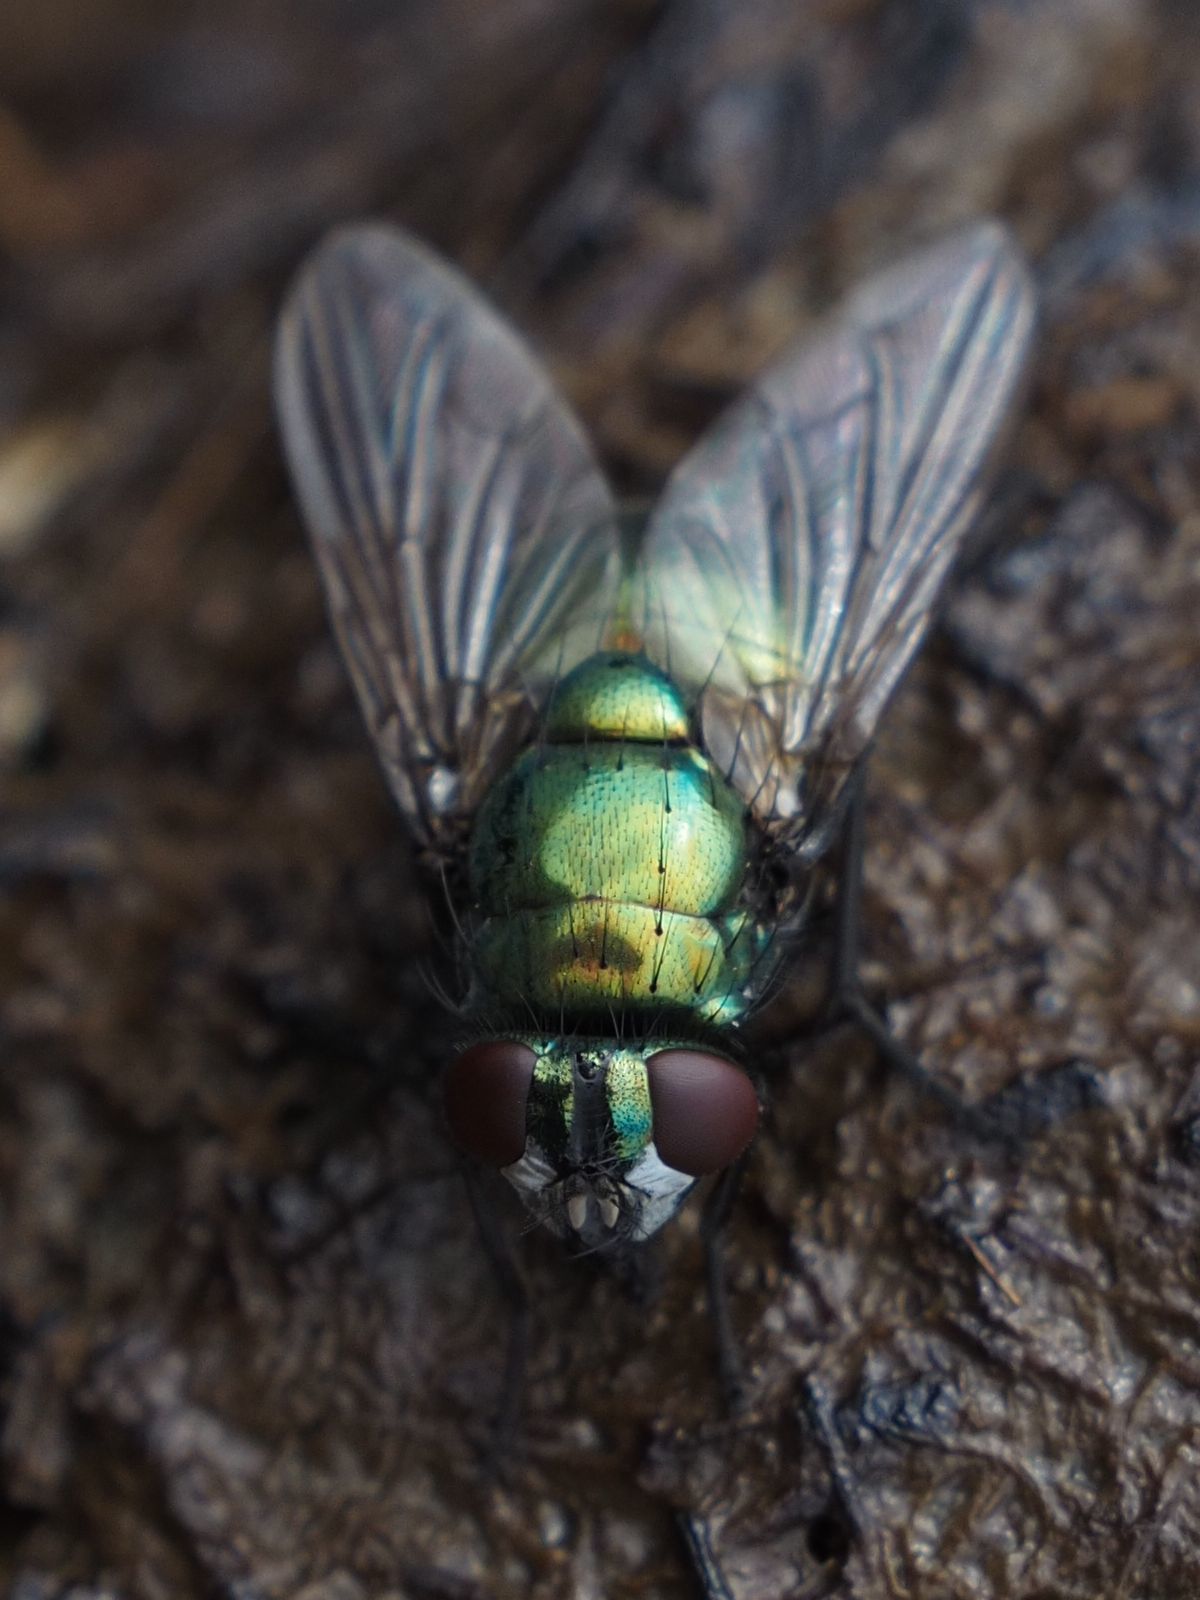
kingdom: Animalia
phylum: Arthropoda
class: Insecta
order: Diptera
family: Muscidae
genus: Neomyia
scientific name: Neomyia cornicina
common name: House fly
